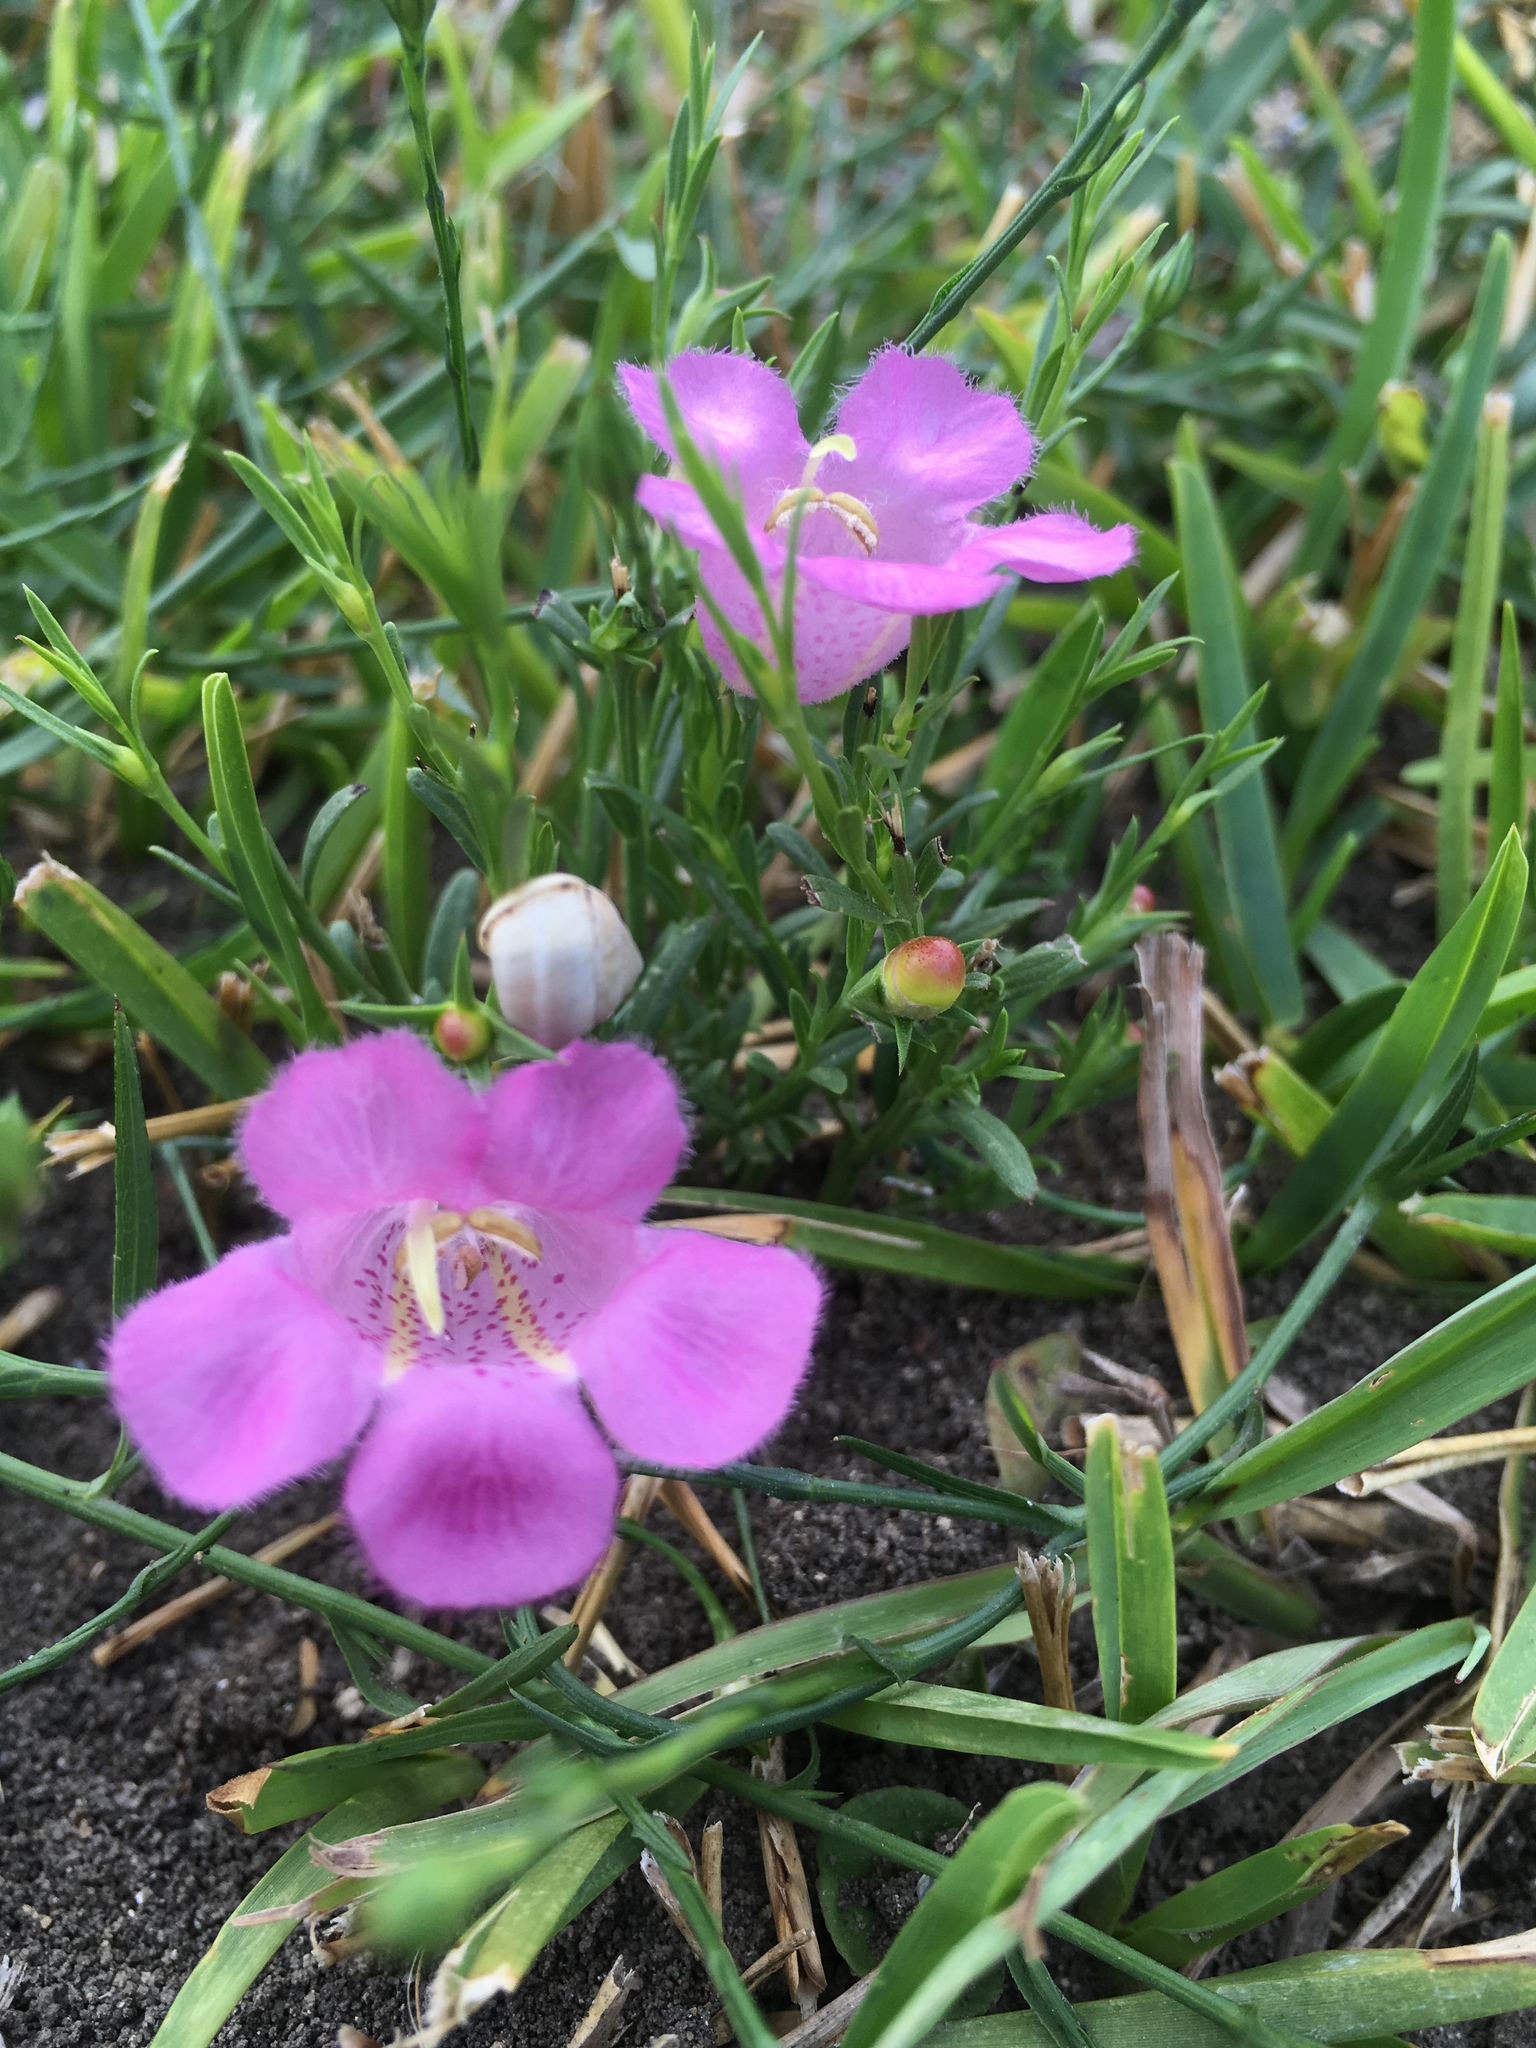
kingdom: Plantae
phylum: Tracheophyta
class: Magnoliopsida
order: Lamiales
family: Orobanchaceae
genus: Agalinis
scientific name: Agalinis heterophylla
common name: Prairie agalinis
